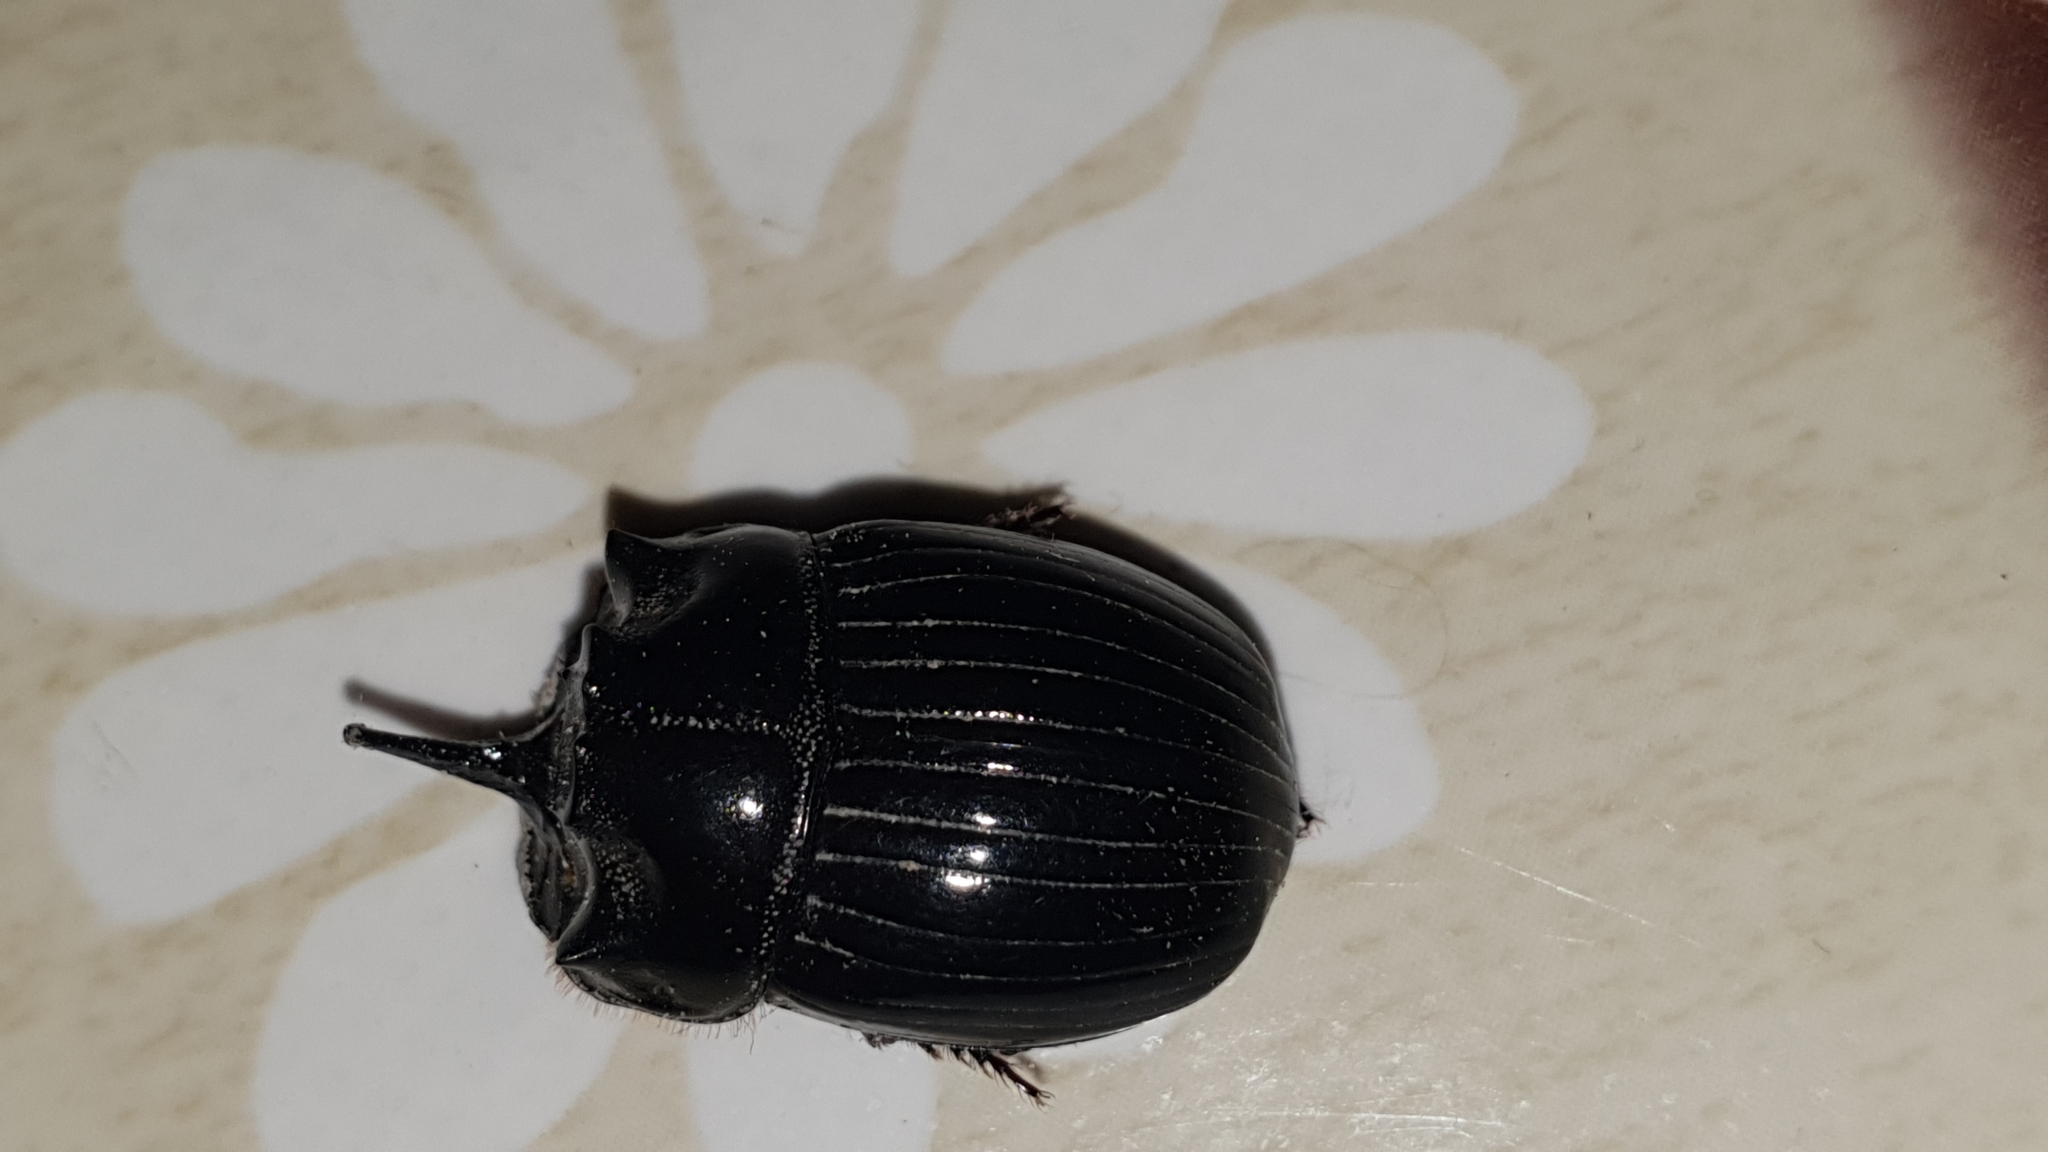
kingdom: Animalia
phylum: Arthropoda
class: Insecta
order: Coleoptera
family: Scarabaeidae
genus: Copris
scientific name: Copris lunaris
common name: Horned dung beetle
